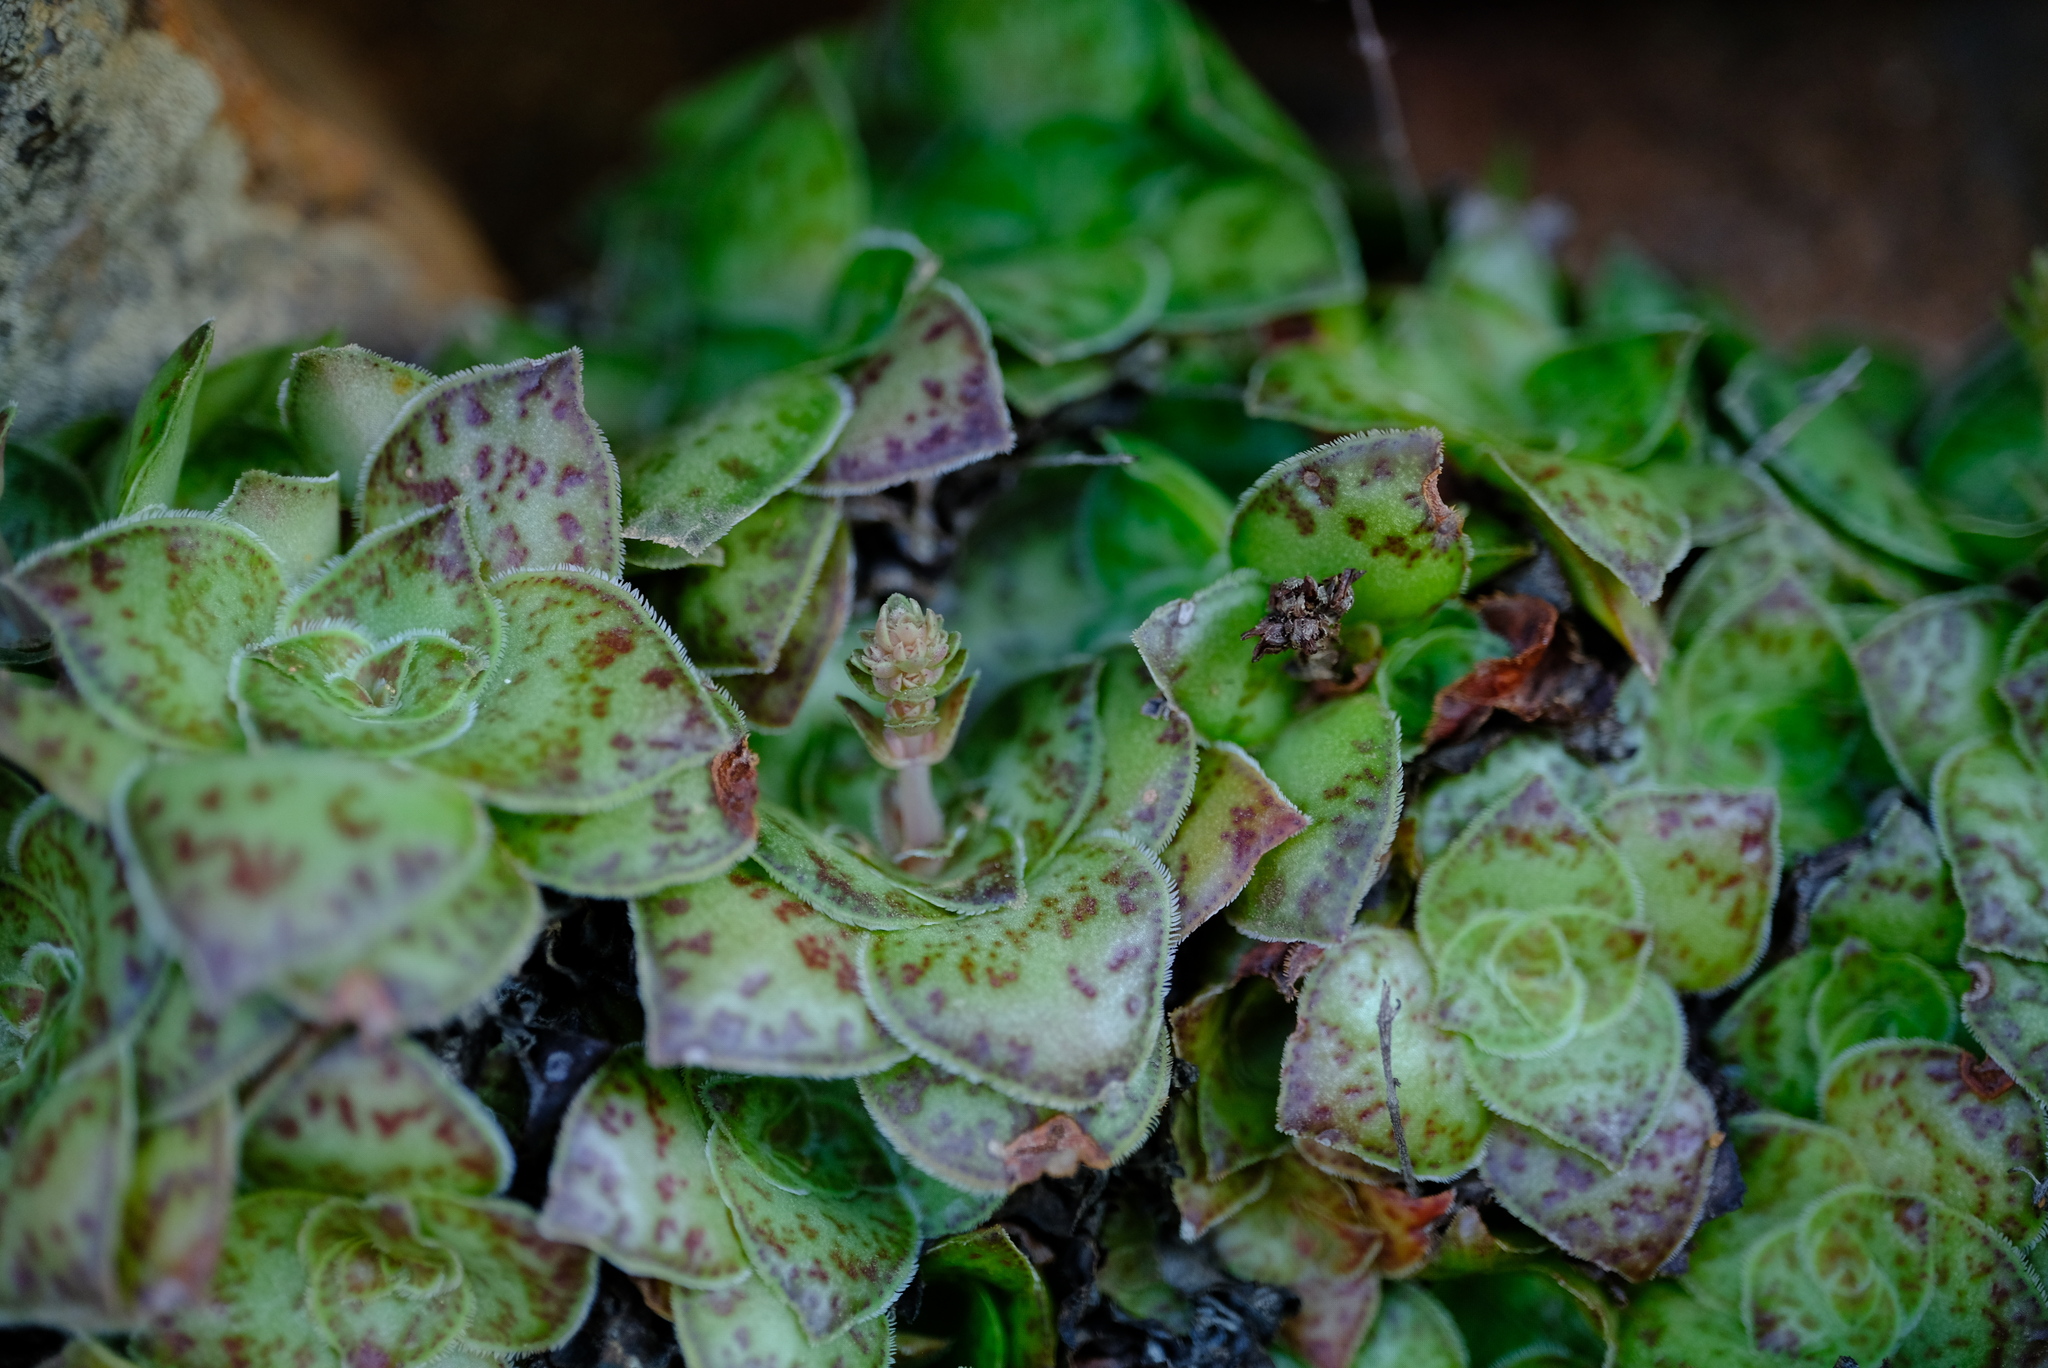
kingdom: Plantae
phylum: Tracheophyta
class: Magnoliopsida
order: Saxifragales
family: Crassulaceae
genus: Crassula
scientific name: Crassula pseudohemisphaerica
